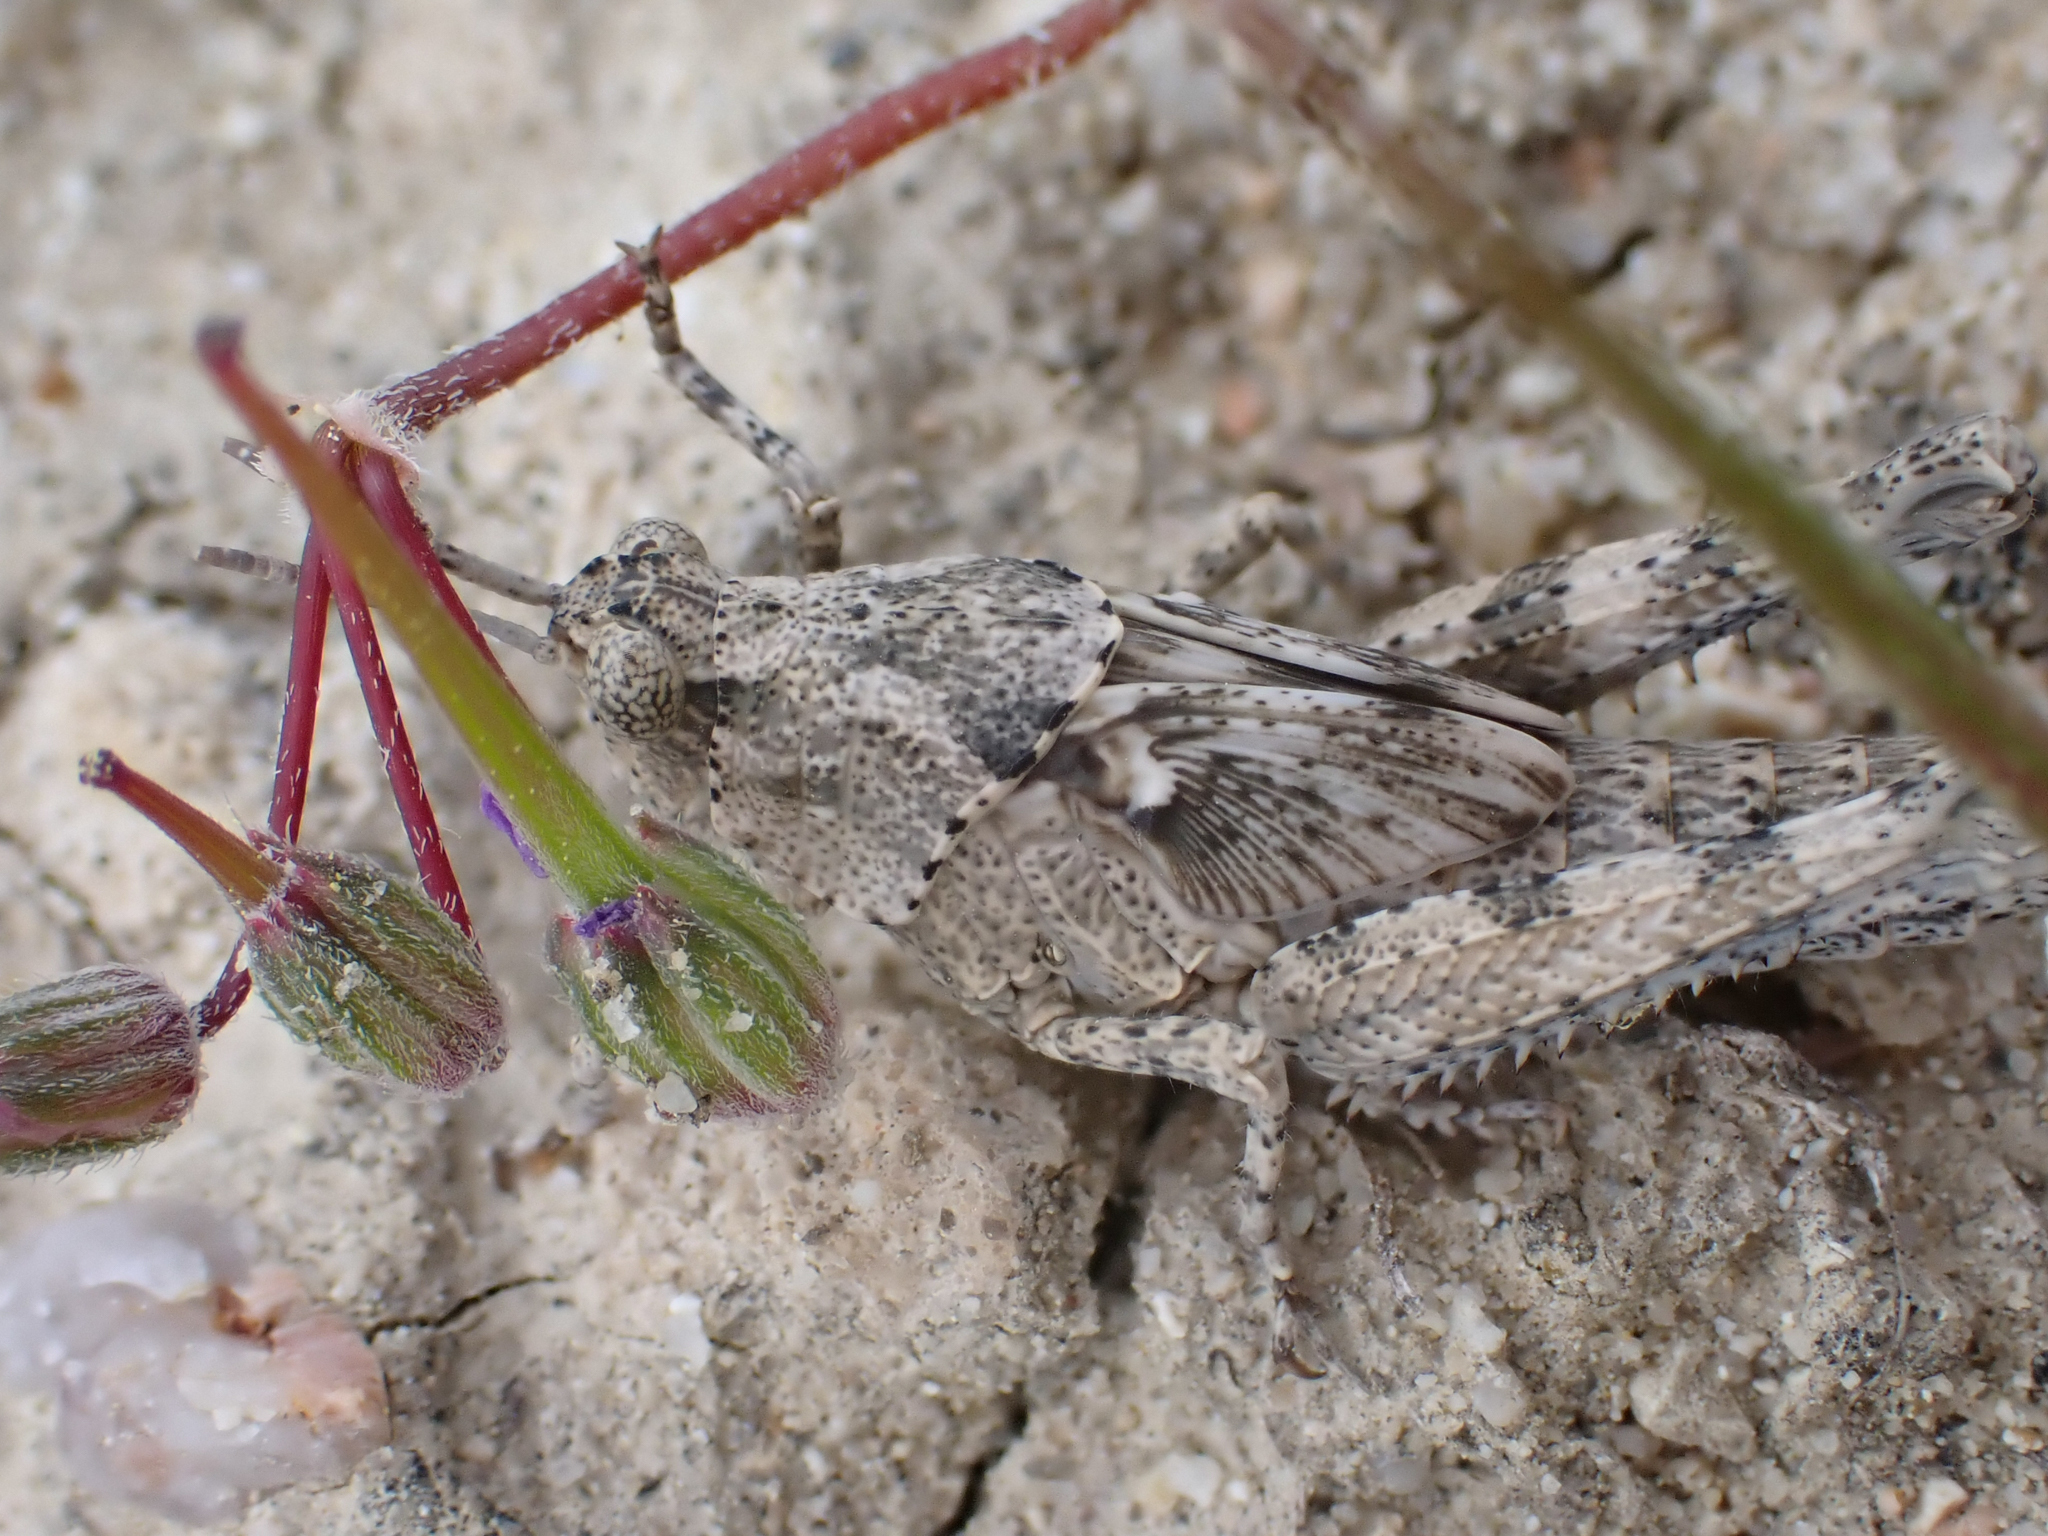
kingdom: Animalia
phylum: Arthropoda
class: Insecta
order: Orthoptera
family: Acrididae
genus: Anconia
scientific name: Anconia integra
